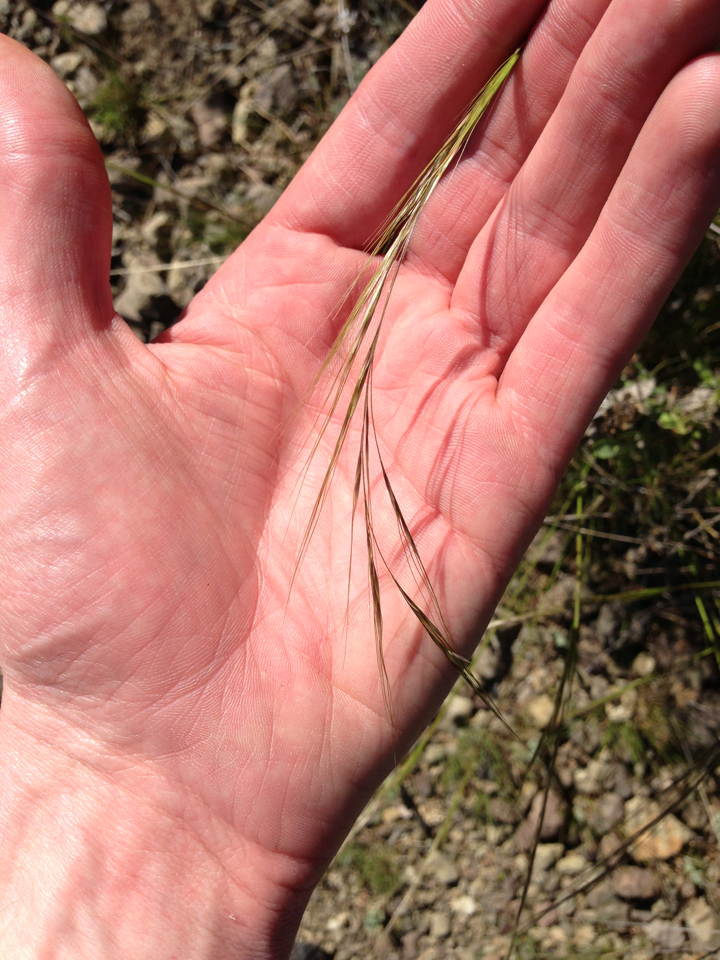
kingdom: Plantae
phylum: Tracheophyta
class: Liliopsida
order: Poales
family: Poaceae
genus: Nassella
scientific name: Nassella lepida
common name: Foothill needlegrass
